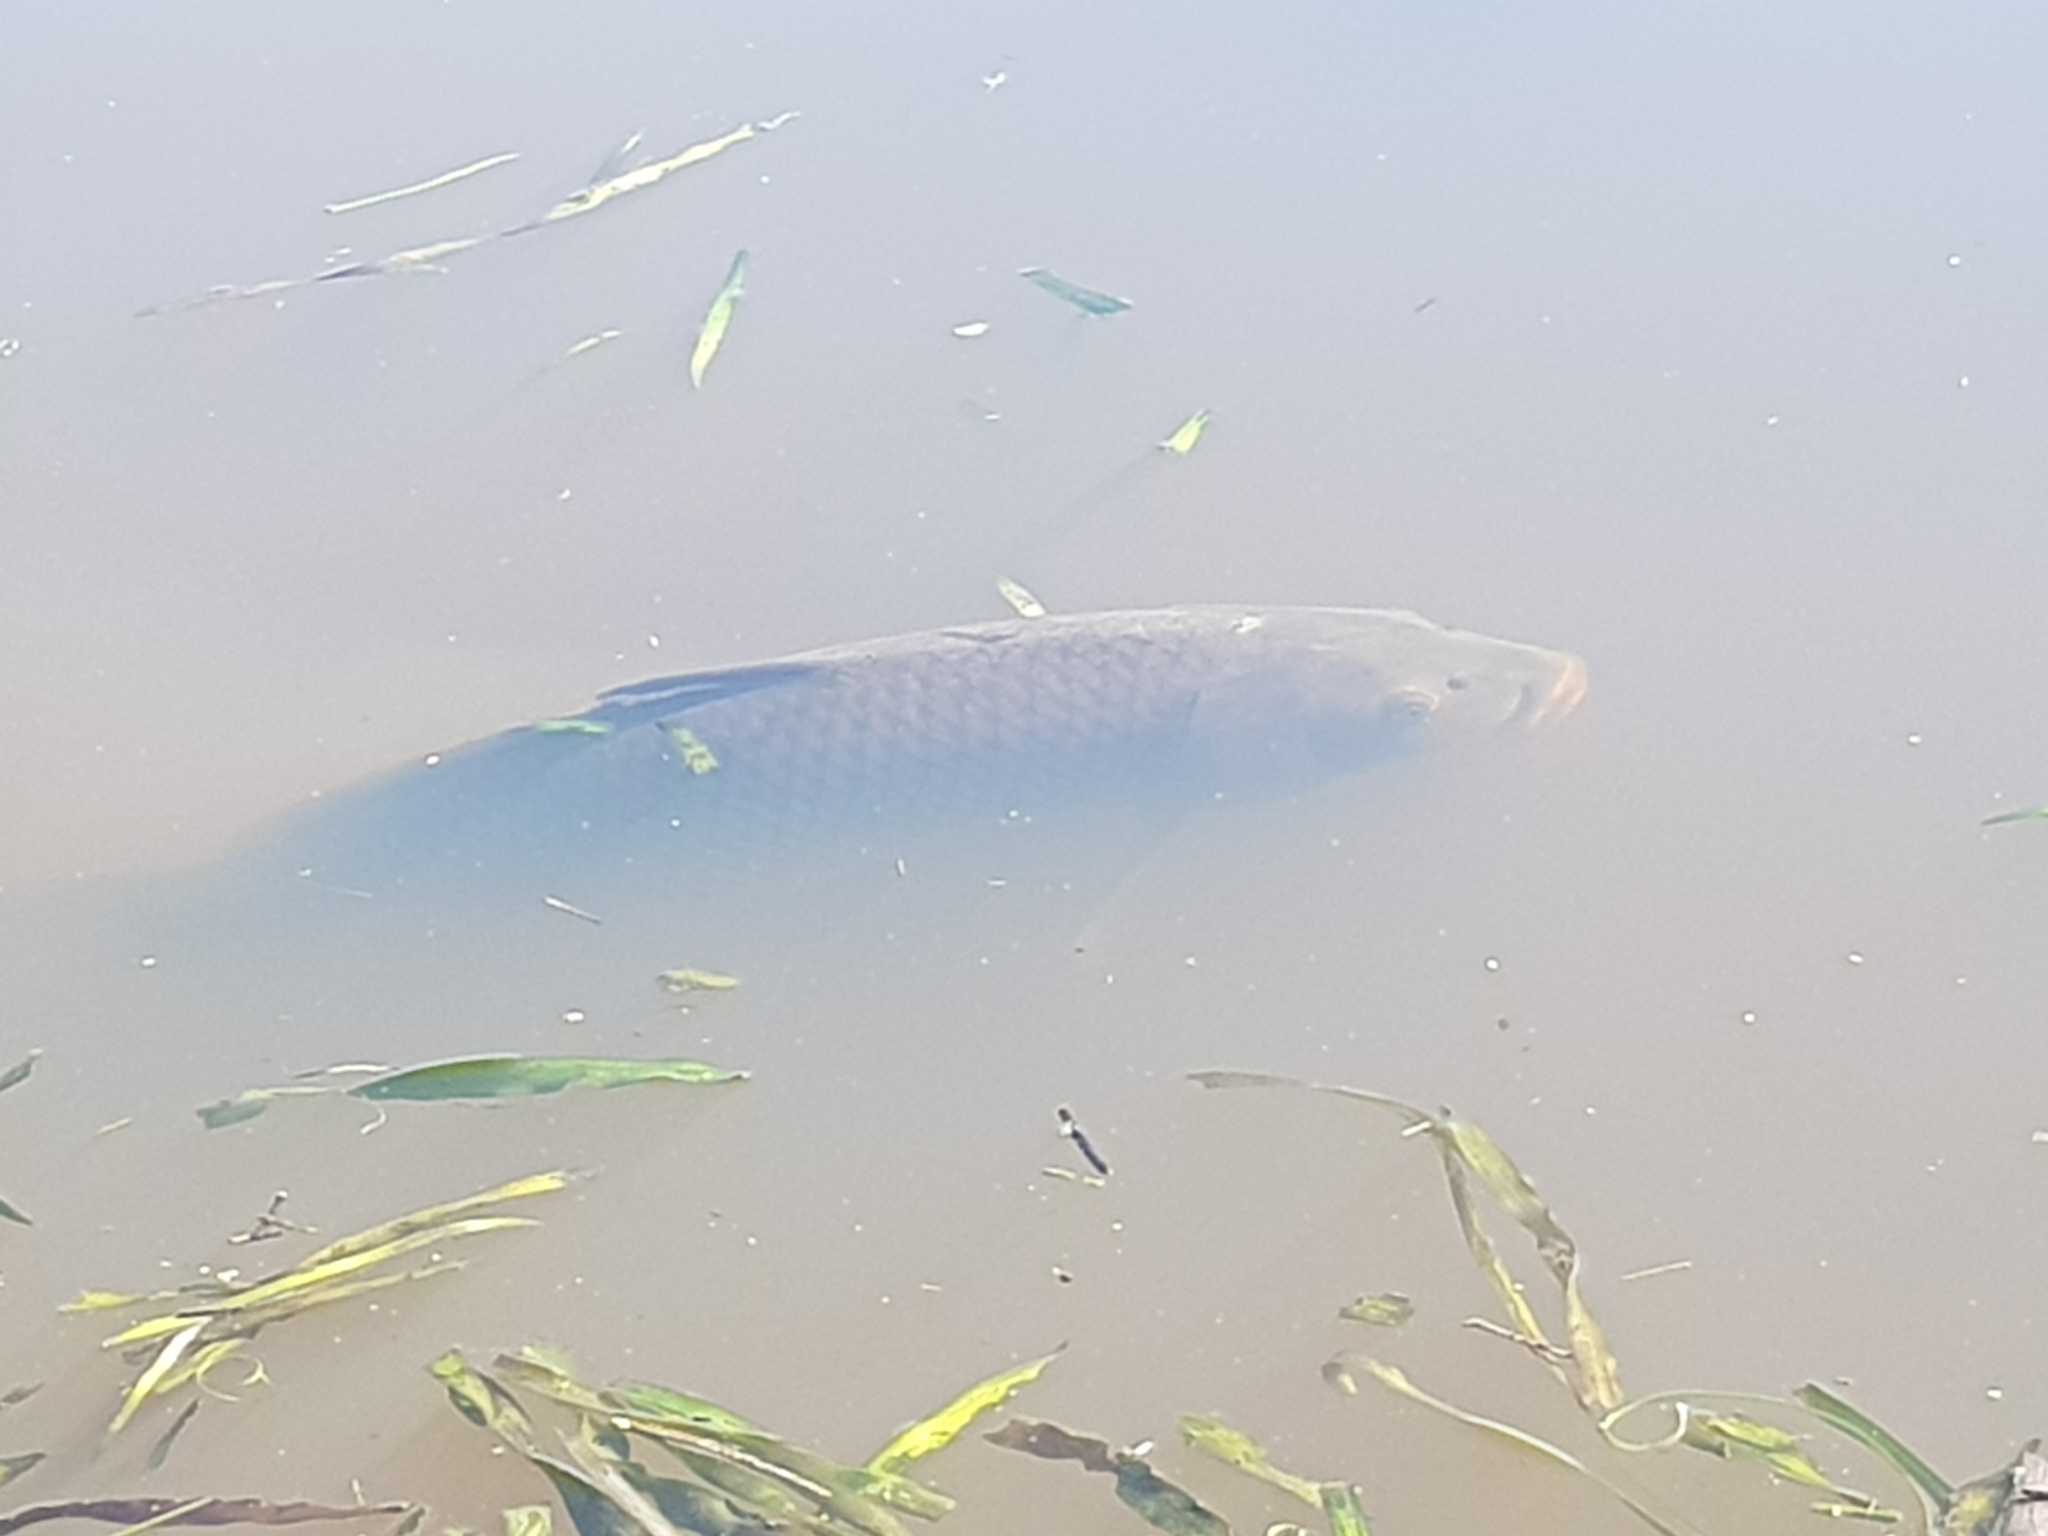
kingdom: Animalia
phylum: Chordata
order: Cypriniformes
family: Cyprinidae
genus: Cyprinus
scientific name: Cyprinus carpio
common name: Common carp
